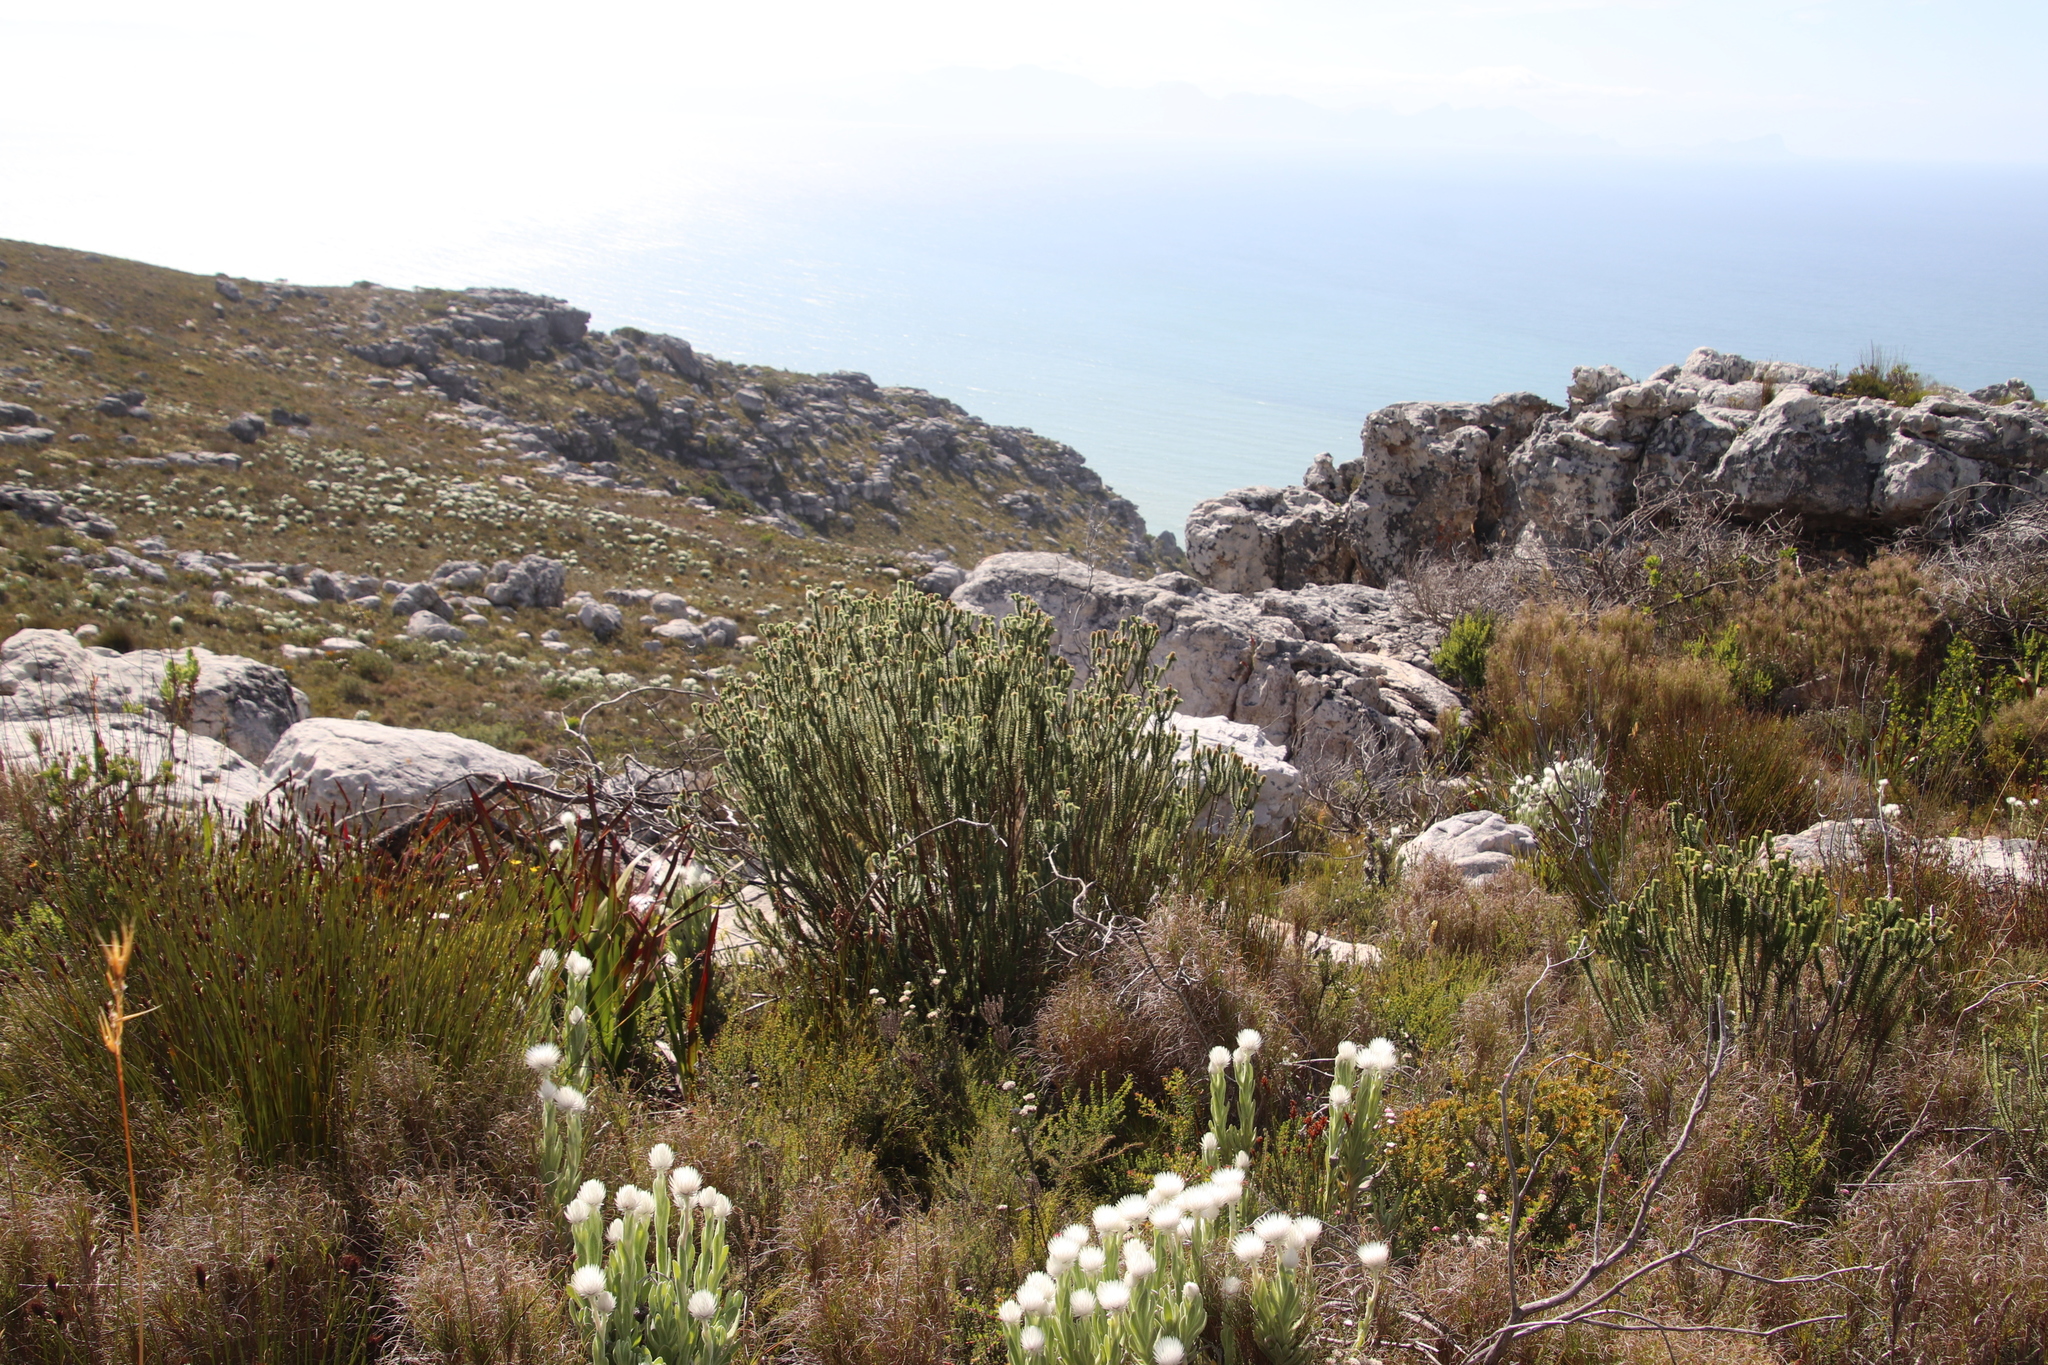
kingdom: Plantae
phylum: Tracheophyta
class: Magnoliopsida
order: Lamiales
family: Stilbaceae
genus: Stilbe
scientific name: Stilbe vestita
